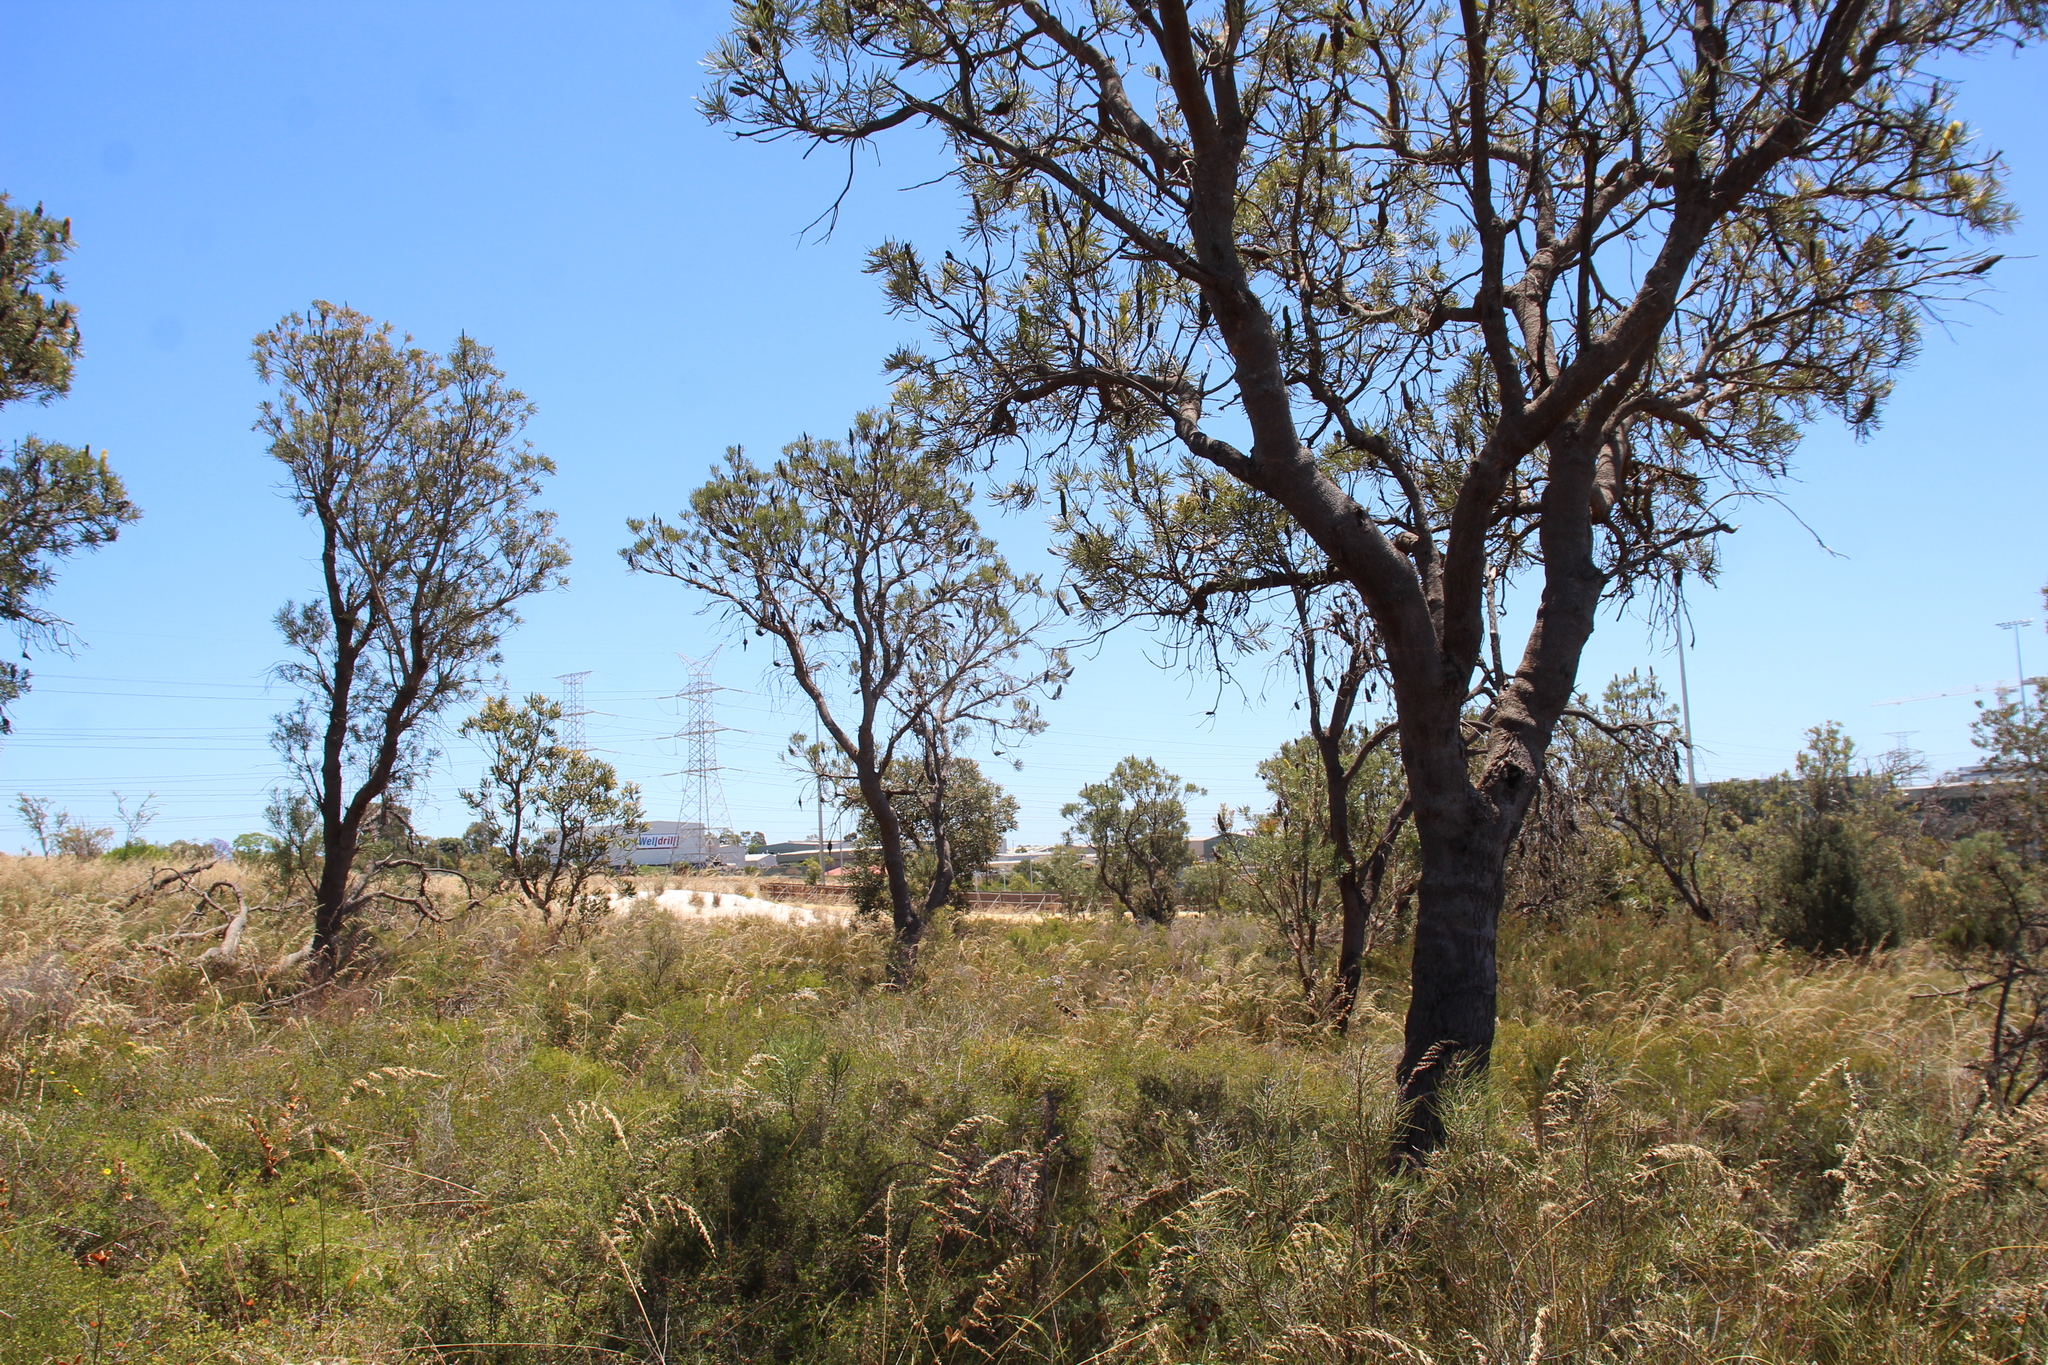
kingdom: Plantae
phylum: Tracheophyta
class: Magnoliopsida
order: Proteales
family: Proteaceae
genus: Banksia
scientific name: Banksia attenuata
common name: Coast banksia
